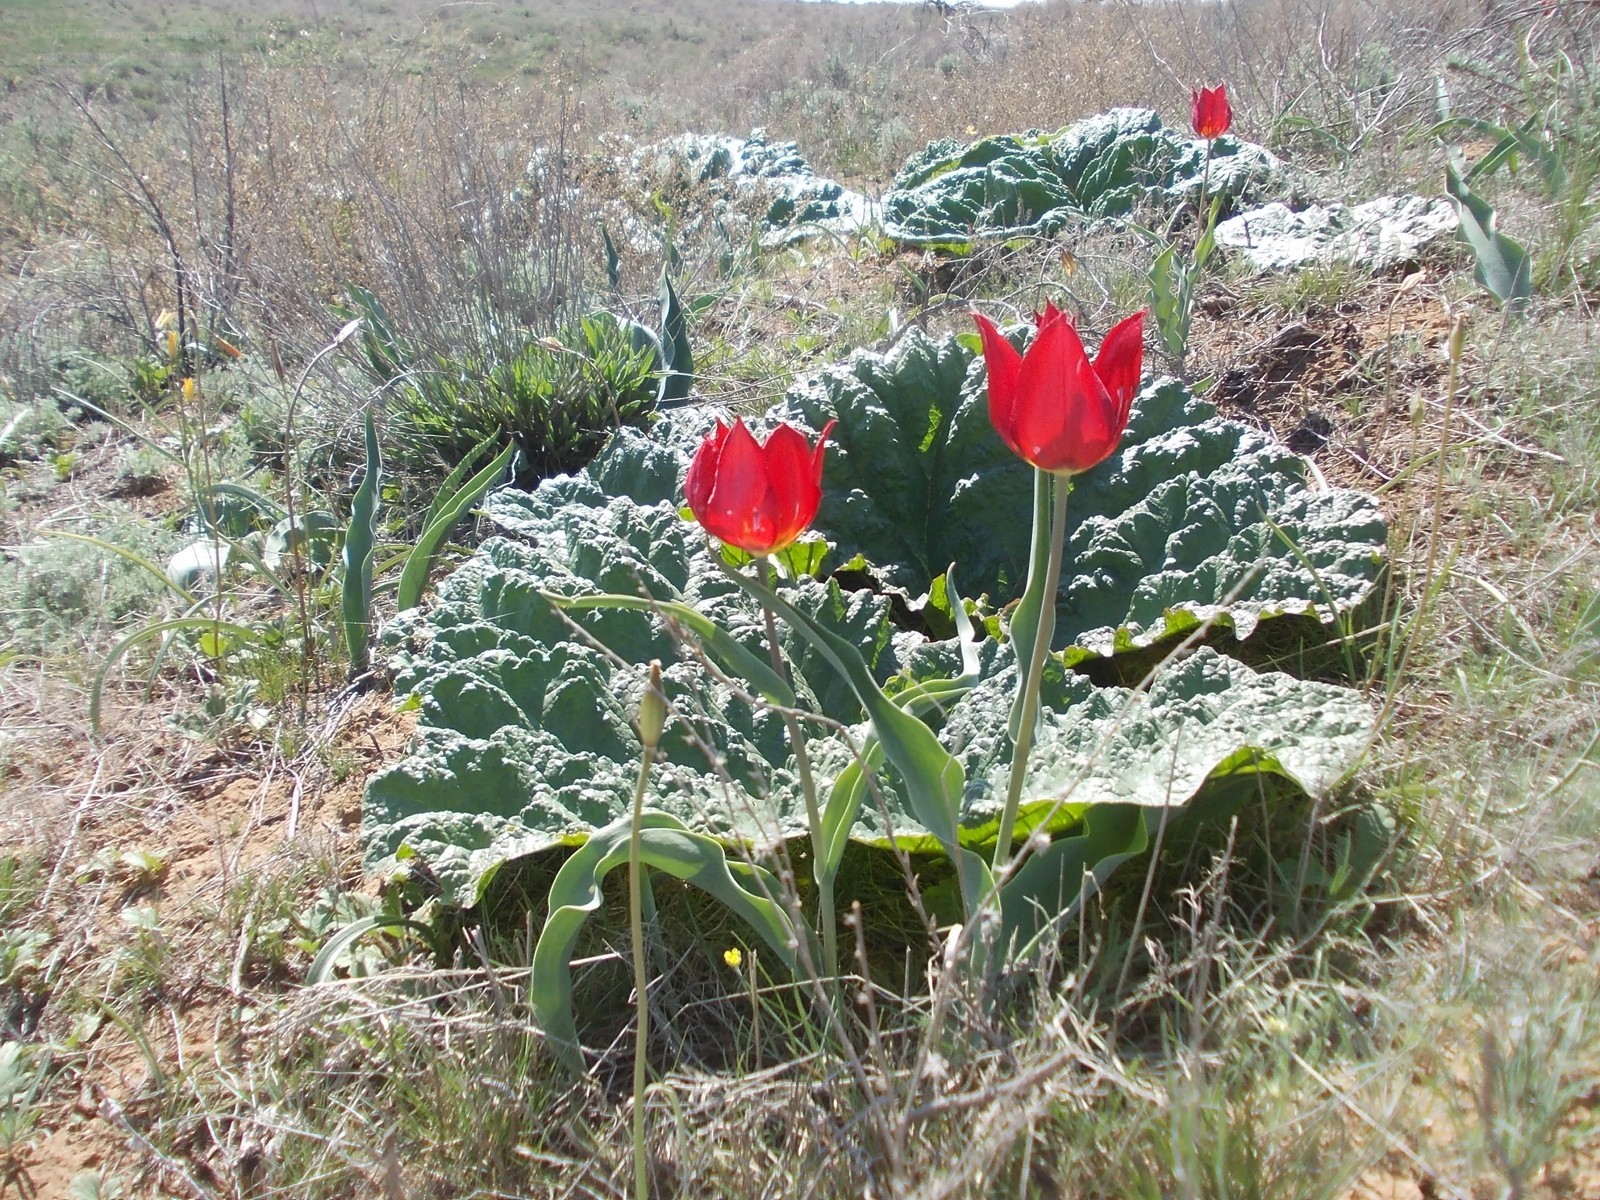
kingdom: Plantae
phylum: Tracheophyta
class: Liliopsida
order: Liliales
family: Liliaceae
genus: Tulipa
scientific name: Tulipa suaveolens
